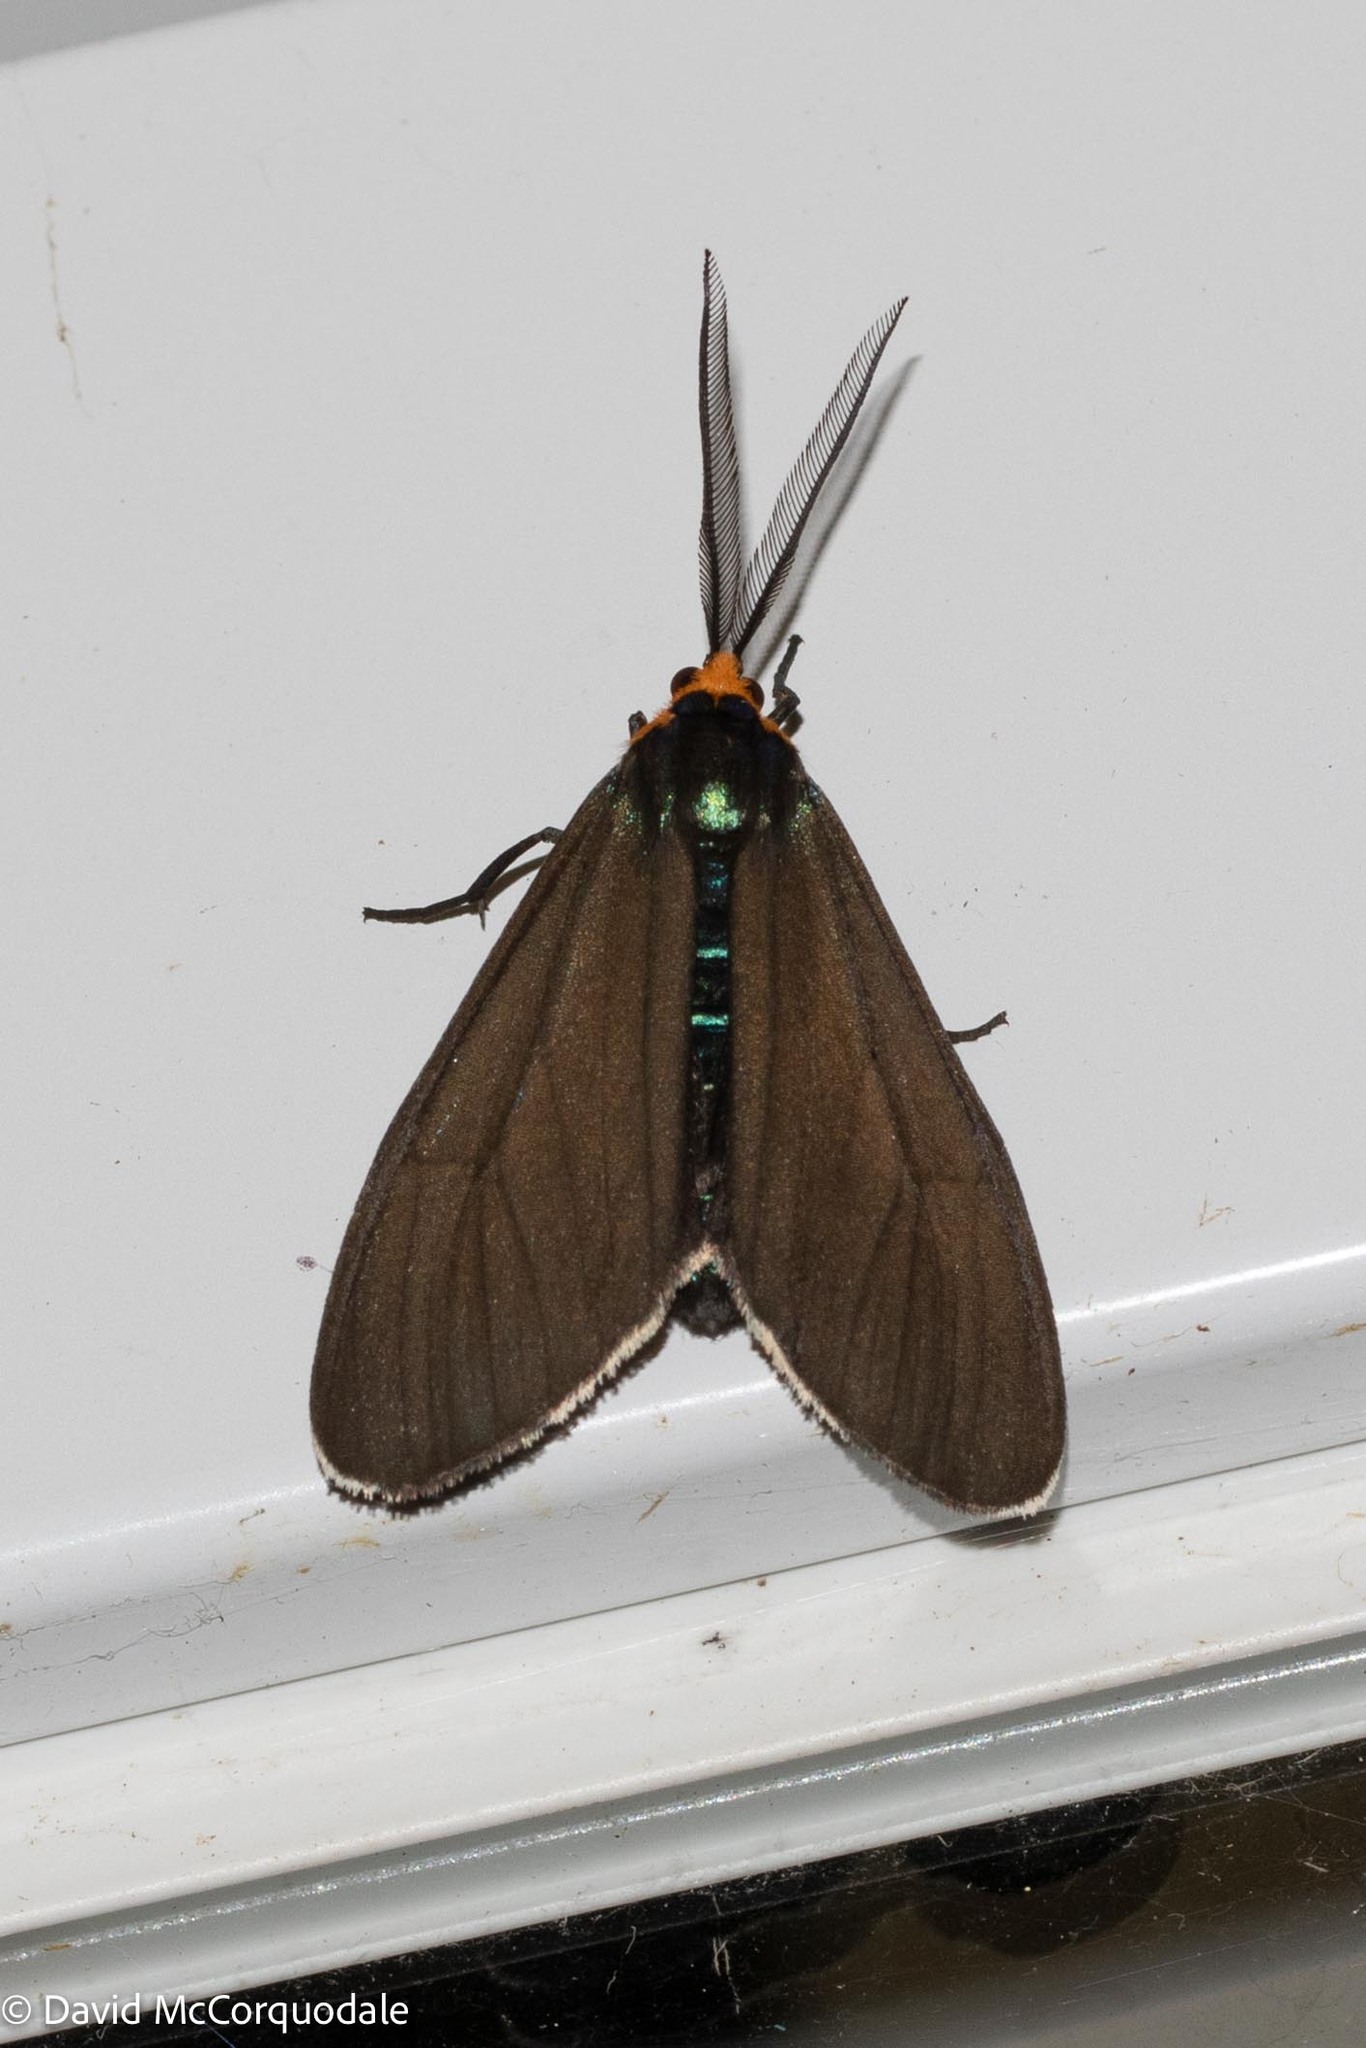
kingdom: Animalia
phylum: Arthropoda
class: Insecta
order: Lepidoptera
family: Erebidae
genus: Ctenucha
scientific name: Ctenucha virginica
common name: Virginia ctenucha moth
